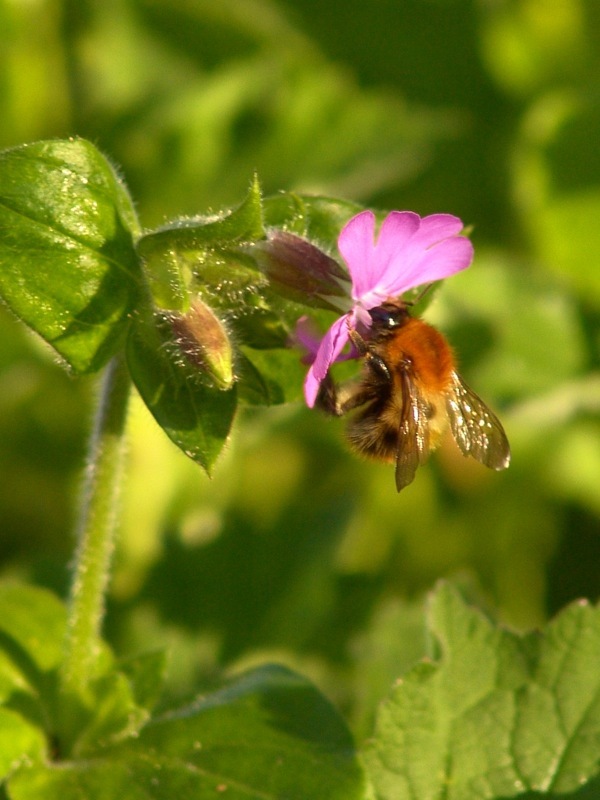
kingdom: Animalia
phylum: Arthropoda
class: Insecta
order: Hymenoptera
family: Apidae
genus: Bombus
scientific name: Bombus pascuorum
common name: Common carder bee
